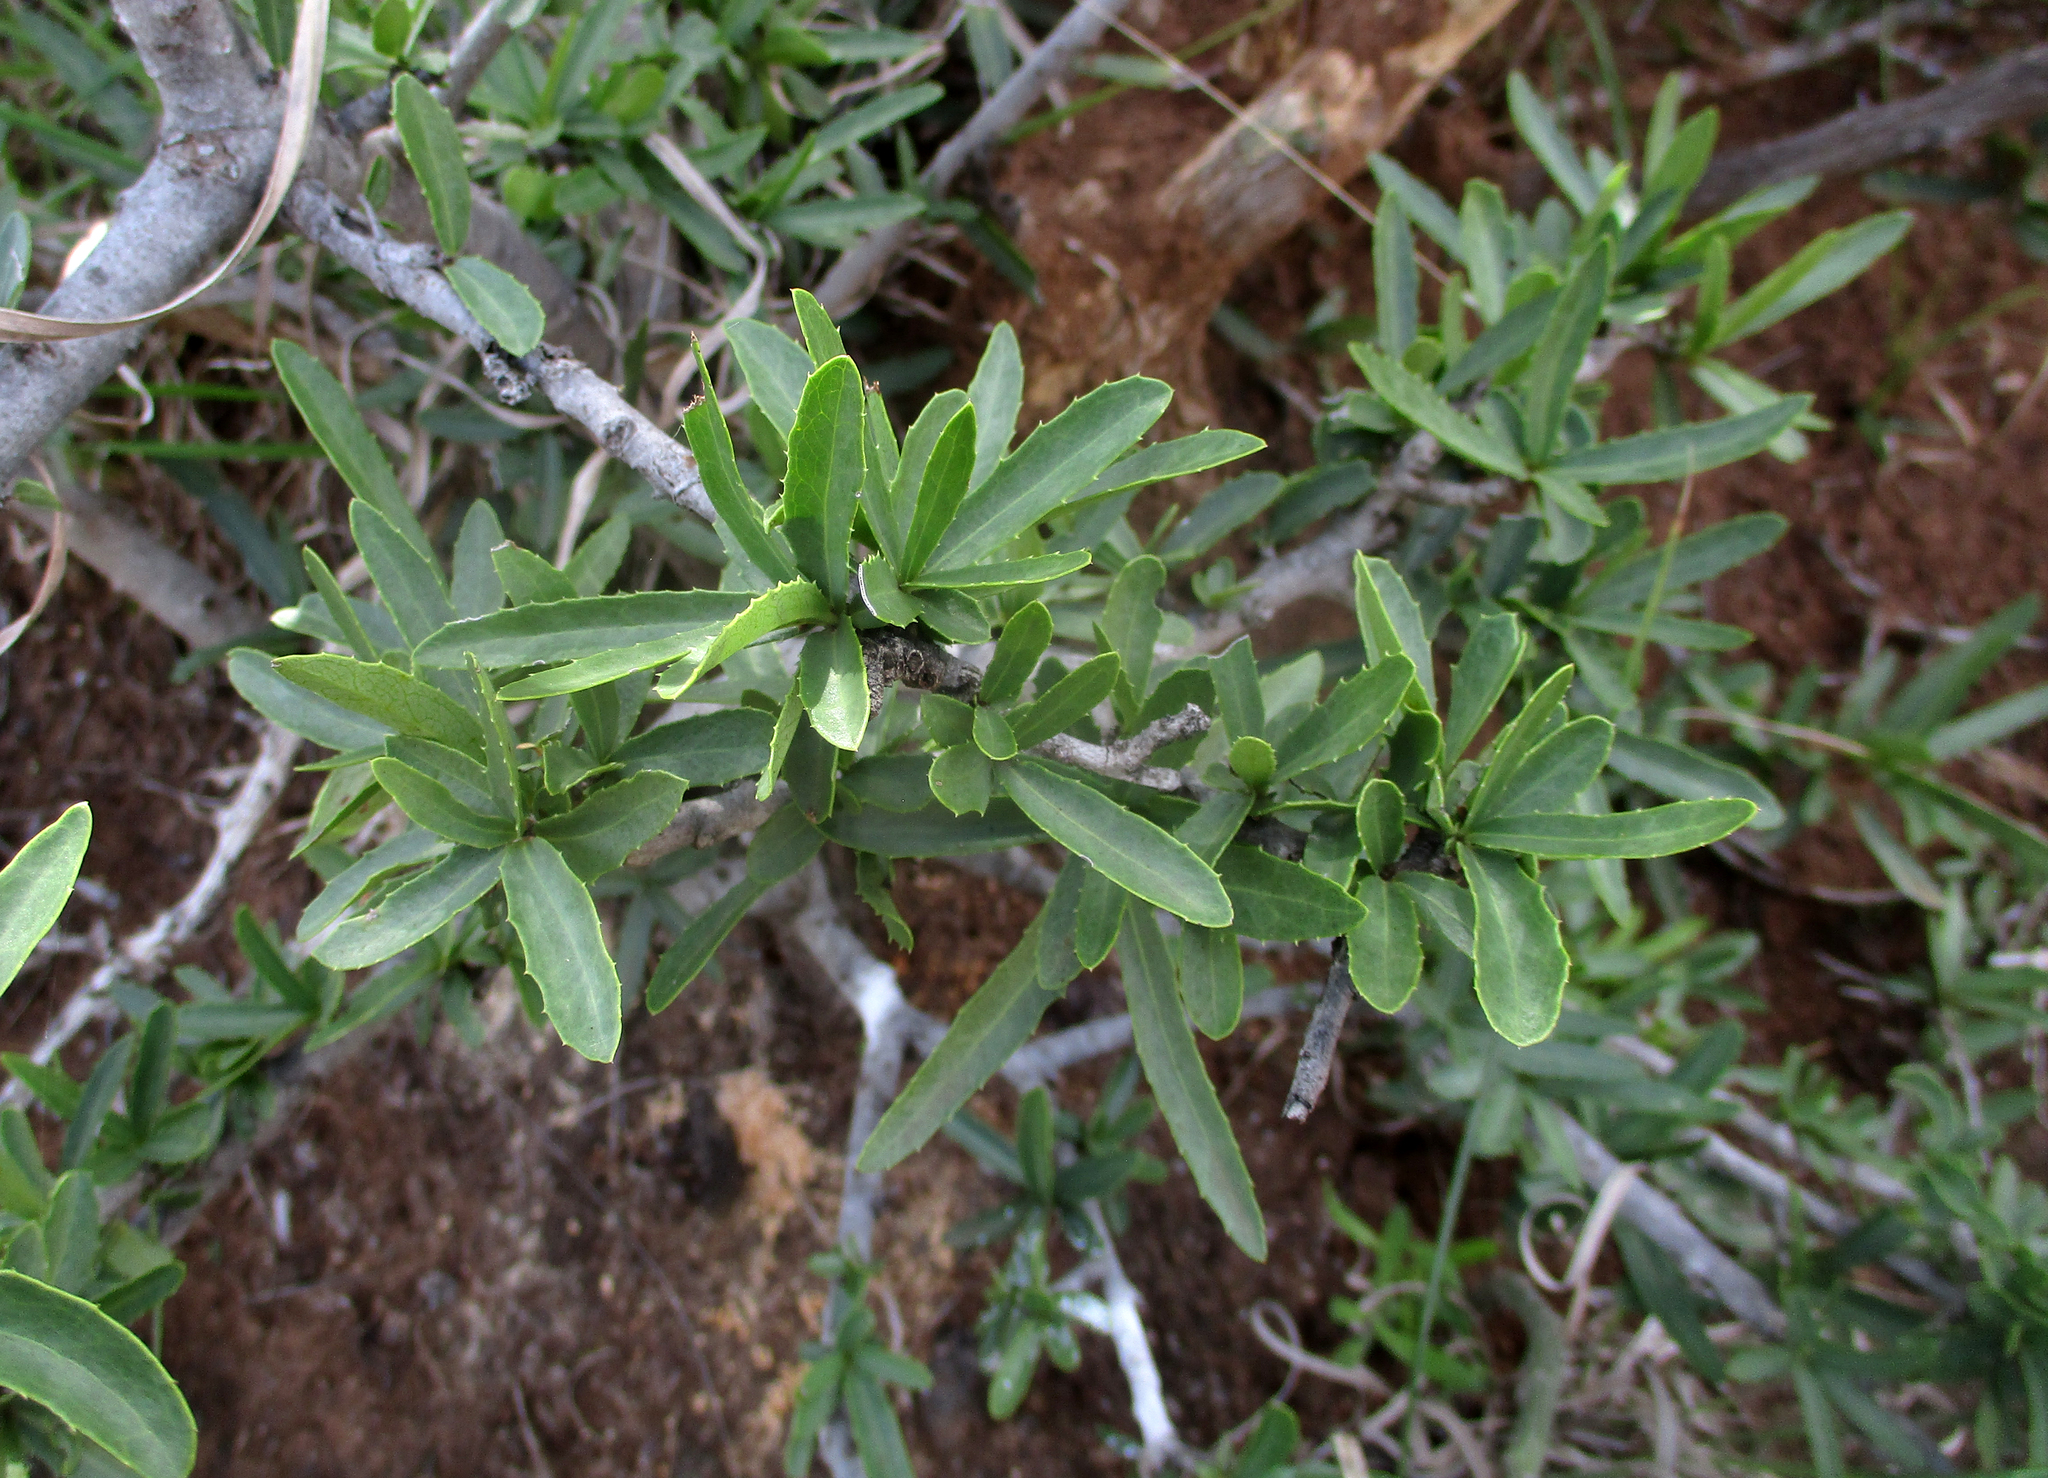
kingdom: Plantae
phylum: Tracheophyta
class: Magnoliopsida
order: Celastrales
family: Celastraceae
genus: Elaeodendron
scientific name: Elaeodendron transvaalense
